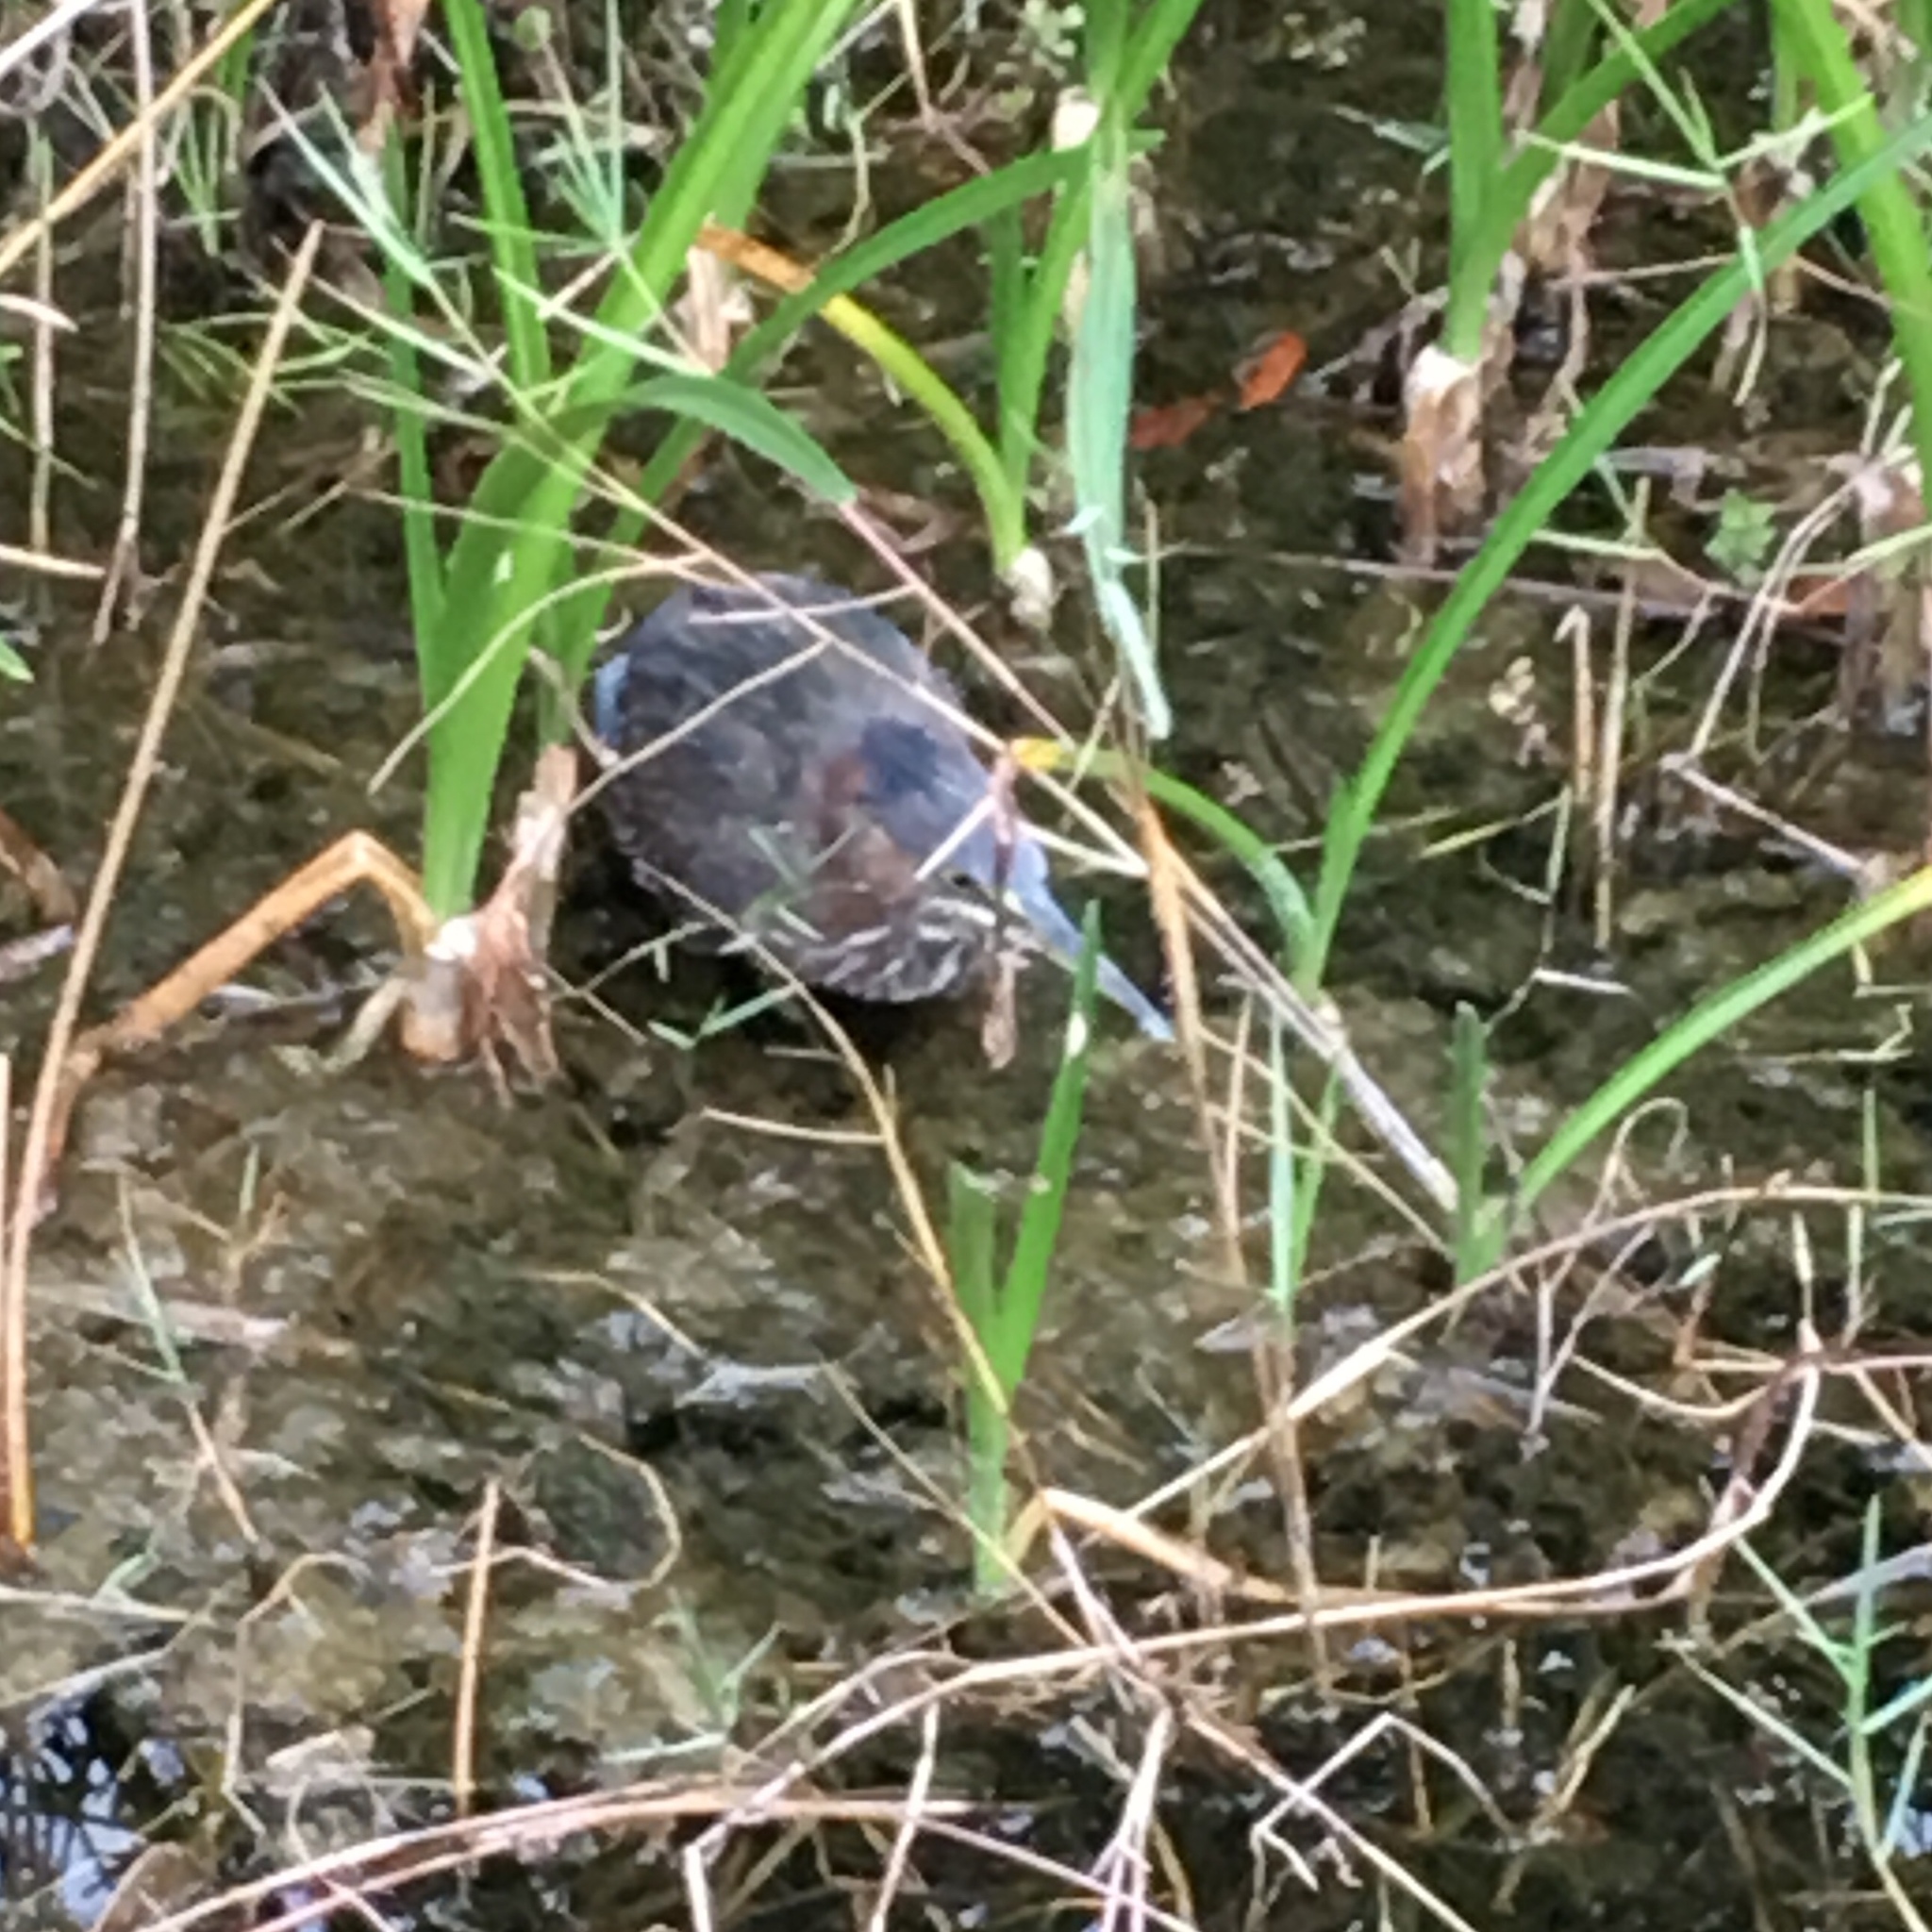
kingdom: Animalia
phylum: Chordata
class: Aves
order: Pelecaniformes
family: Ardeidae
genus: Butorides
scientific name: Butorides virescens
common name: Green heron
